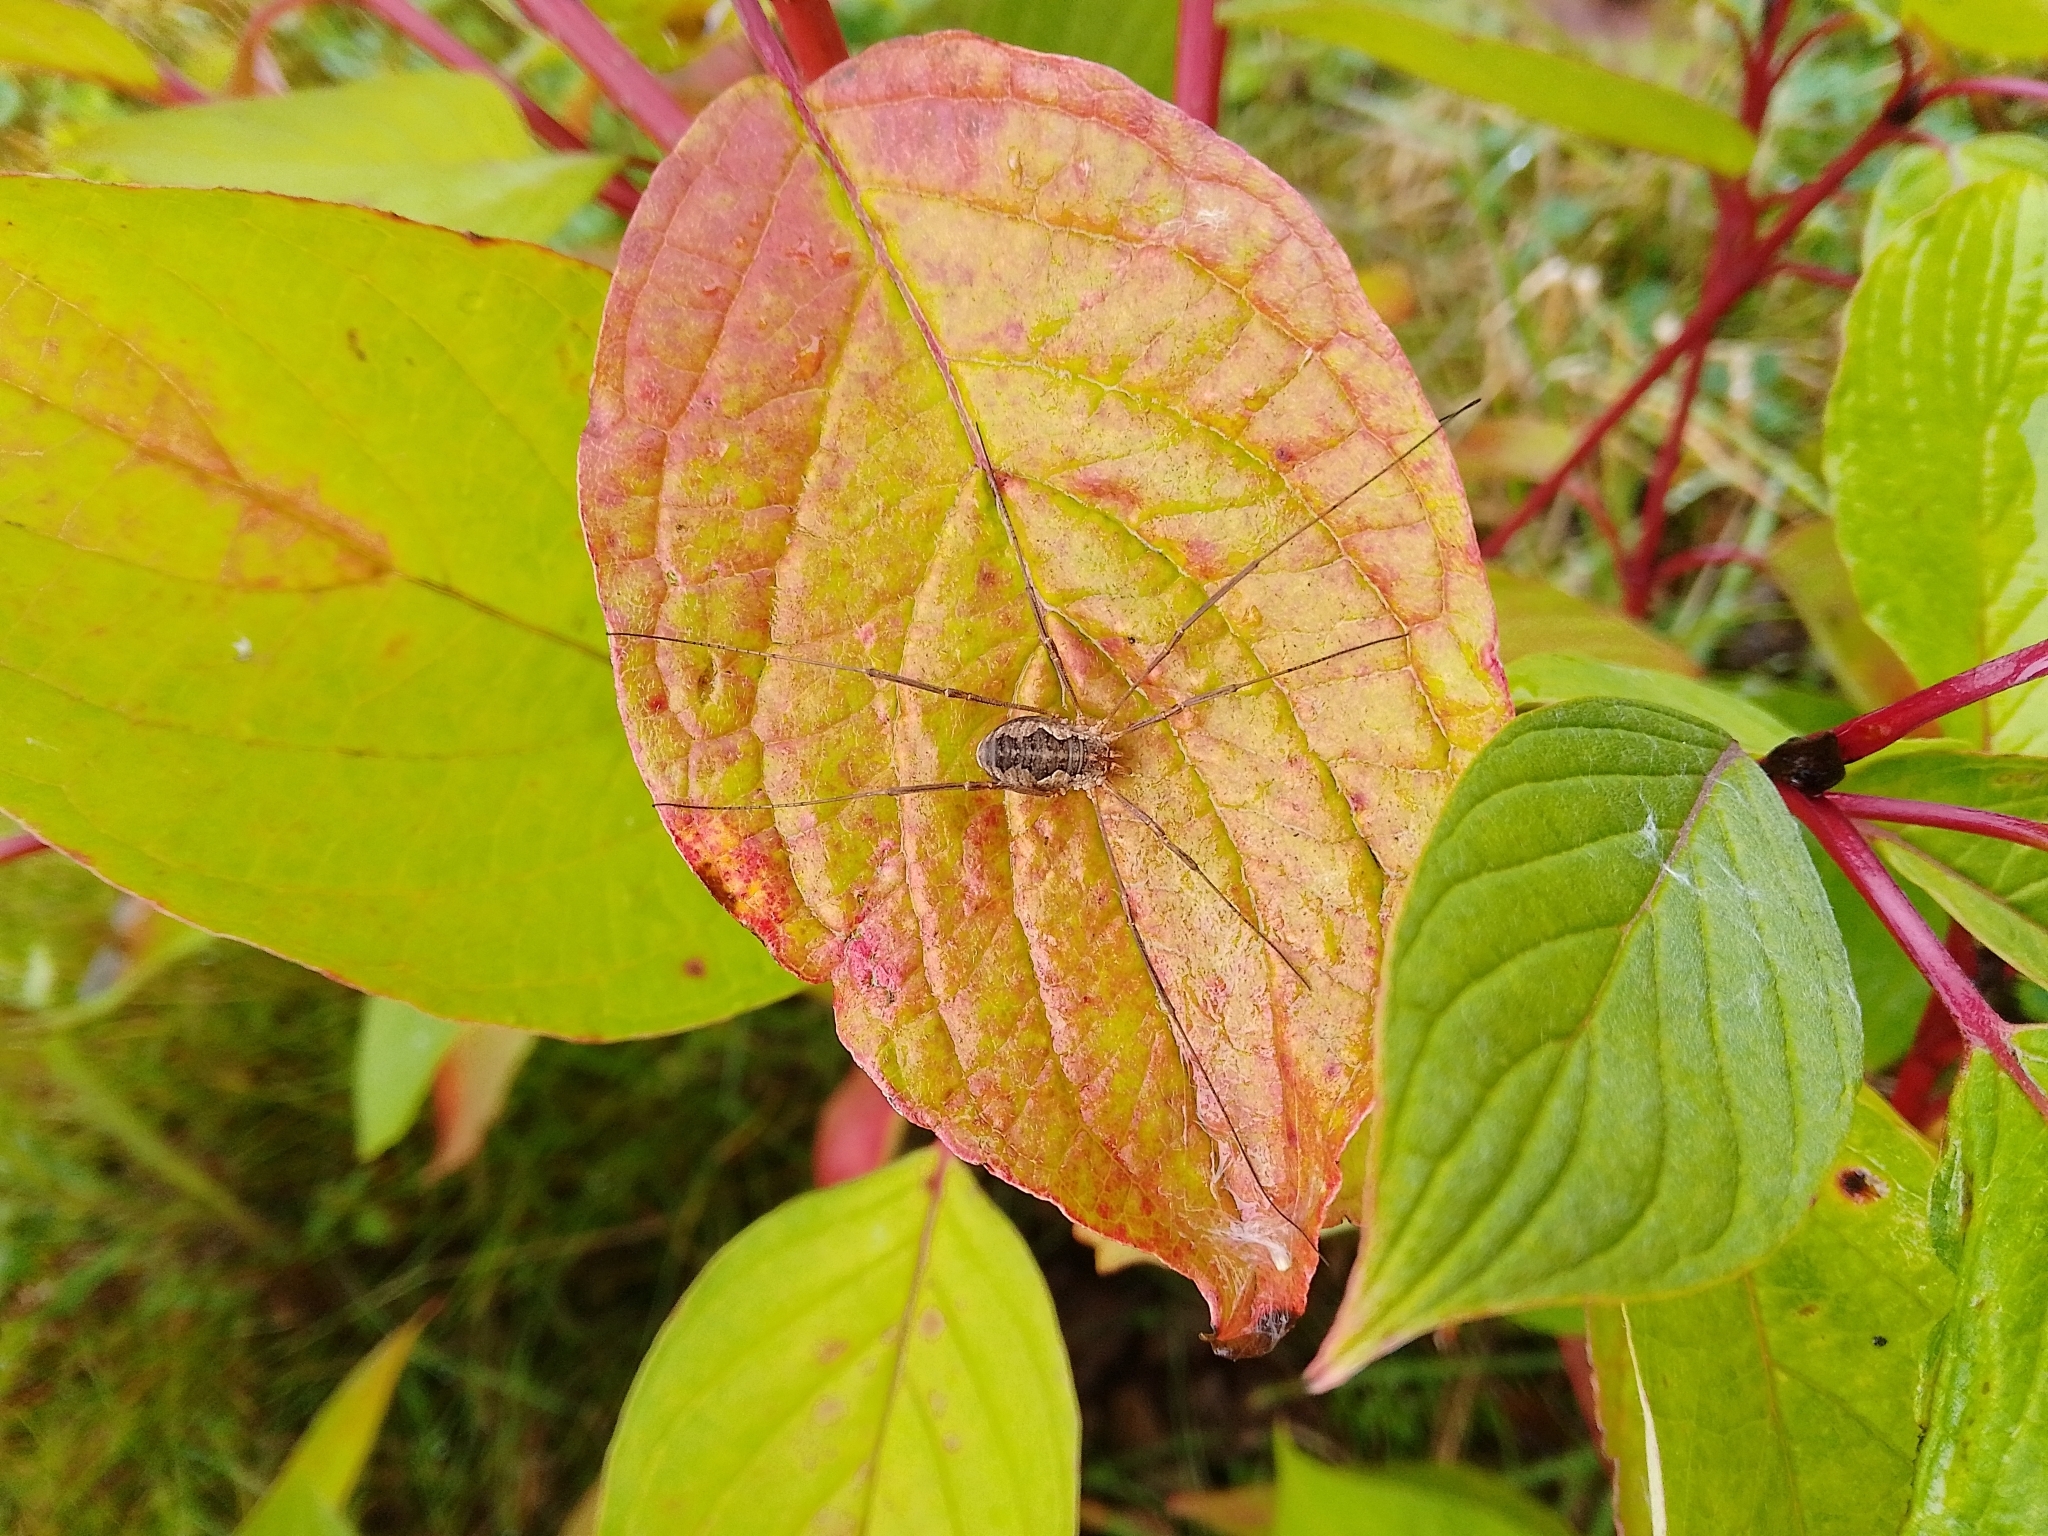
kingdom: Animalia
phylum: Arthropoda
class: Arachnida
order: Opiliones
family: Phalangiidae
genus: Phalangium
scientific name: Phalangium opilio
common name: Daddy longleg
